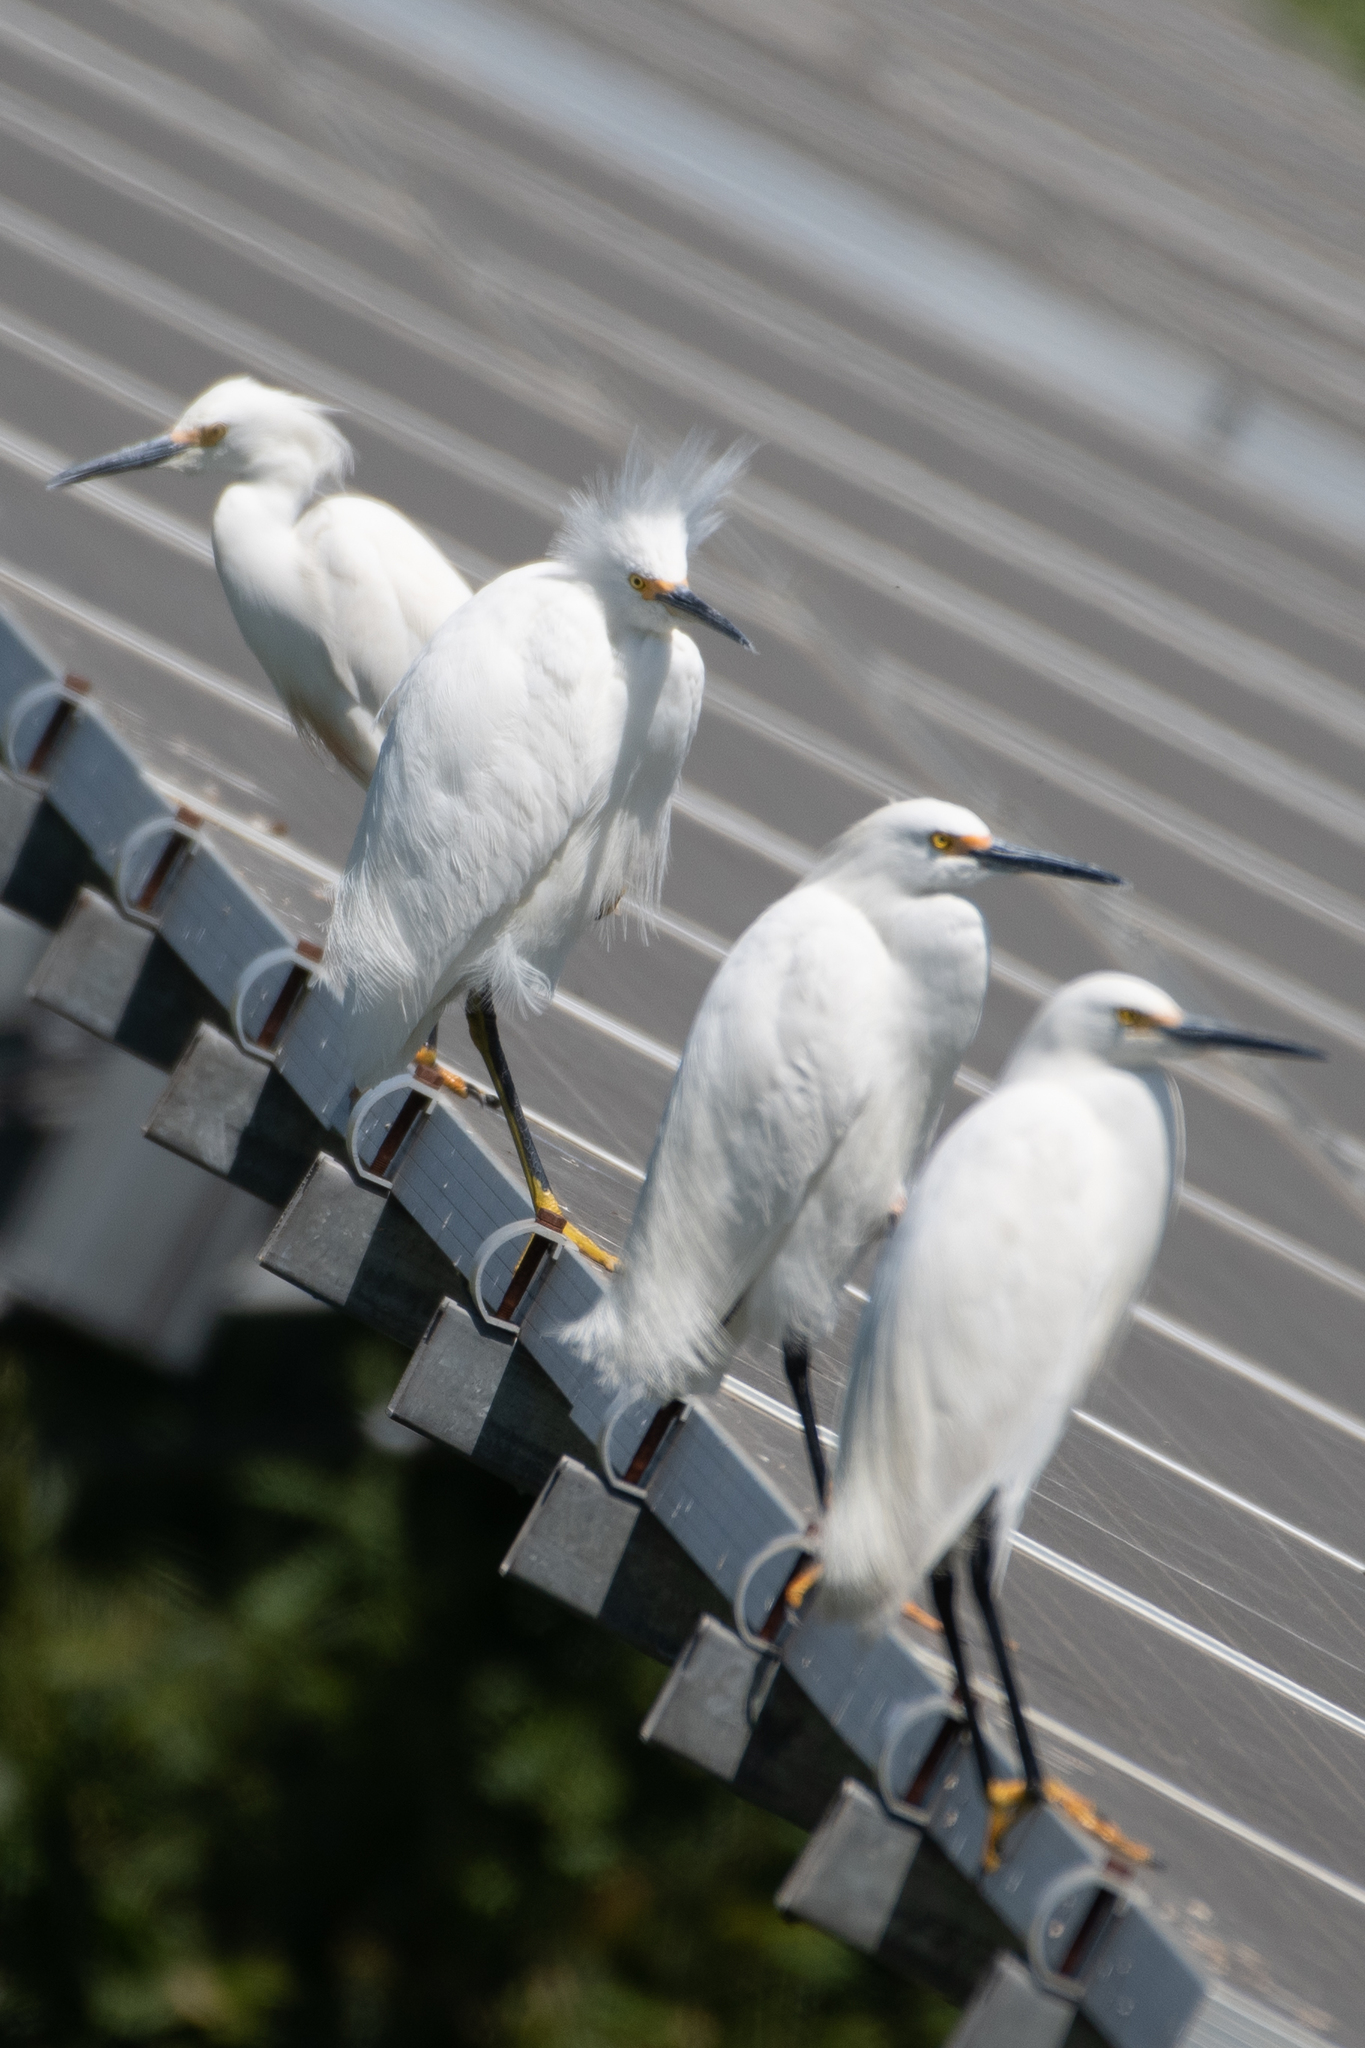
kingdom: Animalia
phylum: Chordata
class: Aves
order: Pelecaniformes
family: Ardeidae
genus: Egretta
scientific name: Egretta thula
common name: Snowy egret
